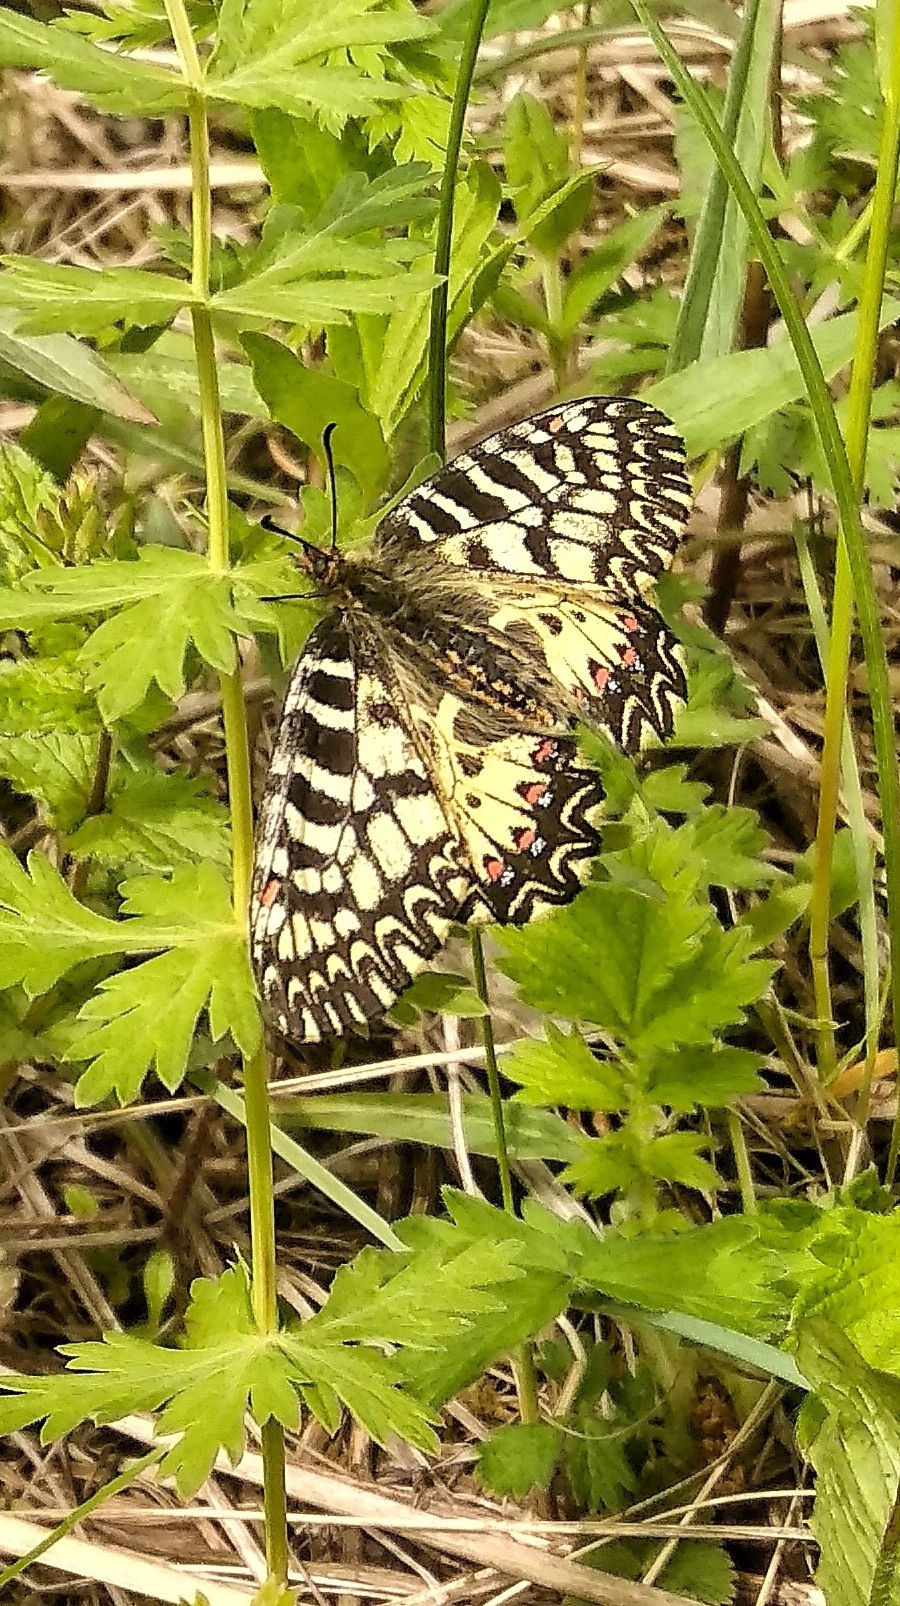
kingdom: Animalia
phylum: Arthropoda
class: Insecta
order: Lepidoptera
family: Papilionidae
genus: Zerynthia
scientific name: Zerynthia polyxena
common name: Southern festoon
